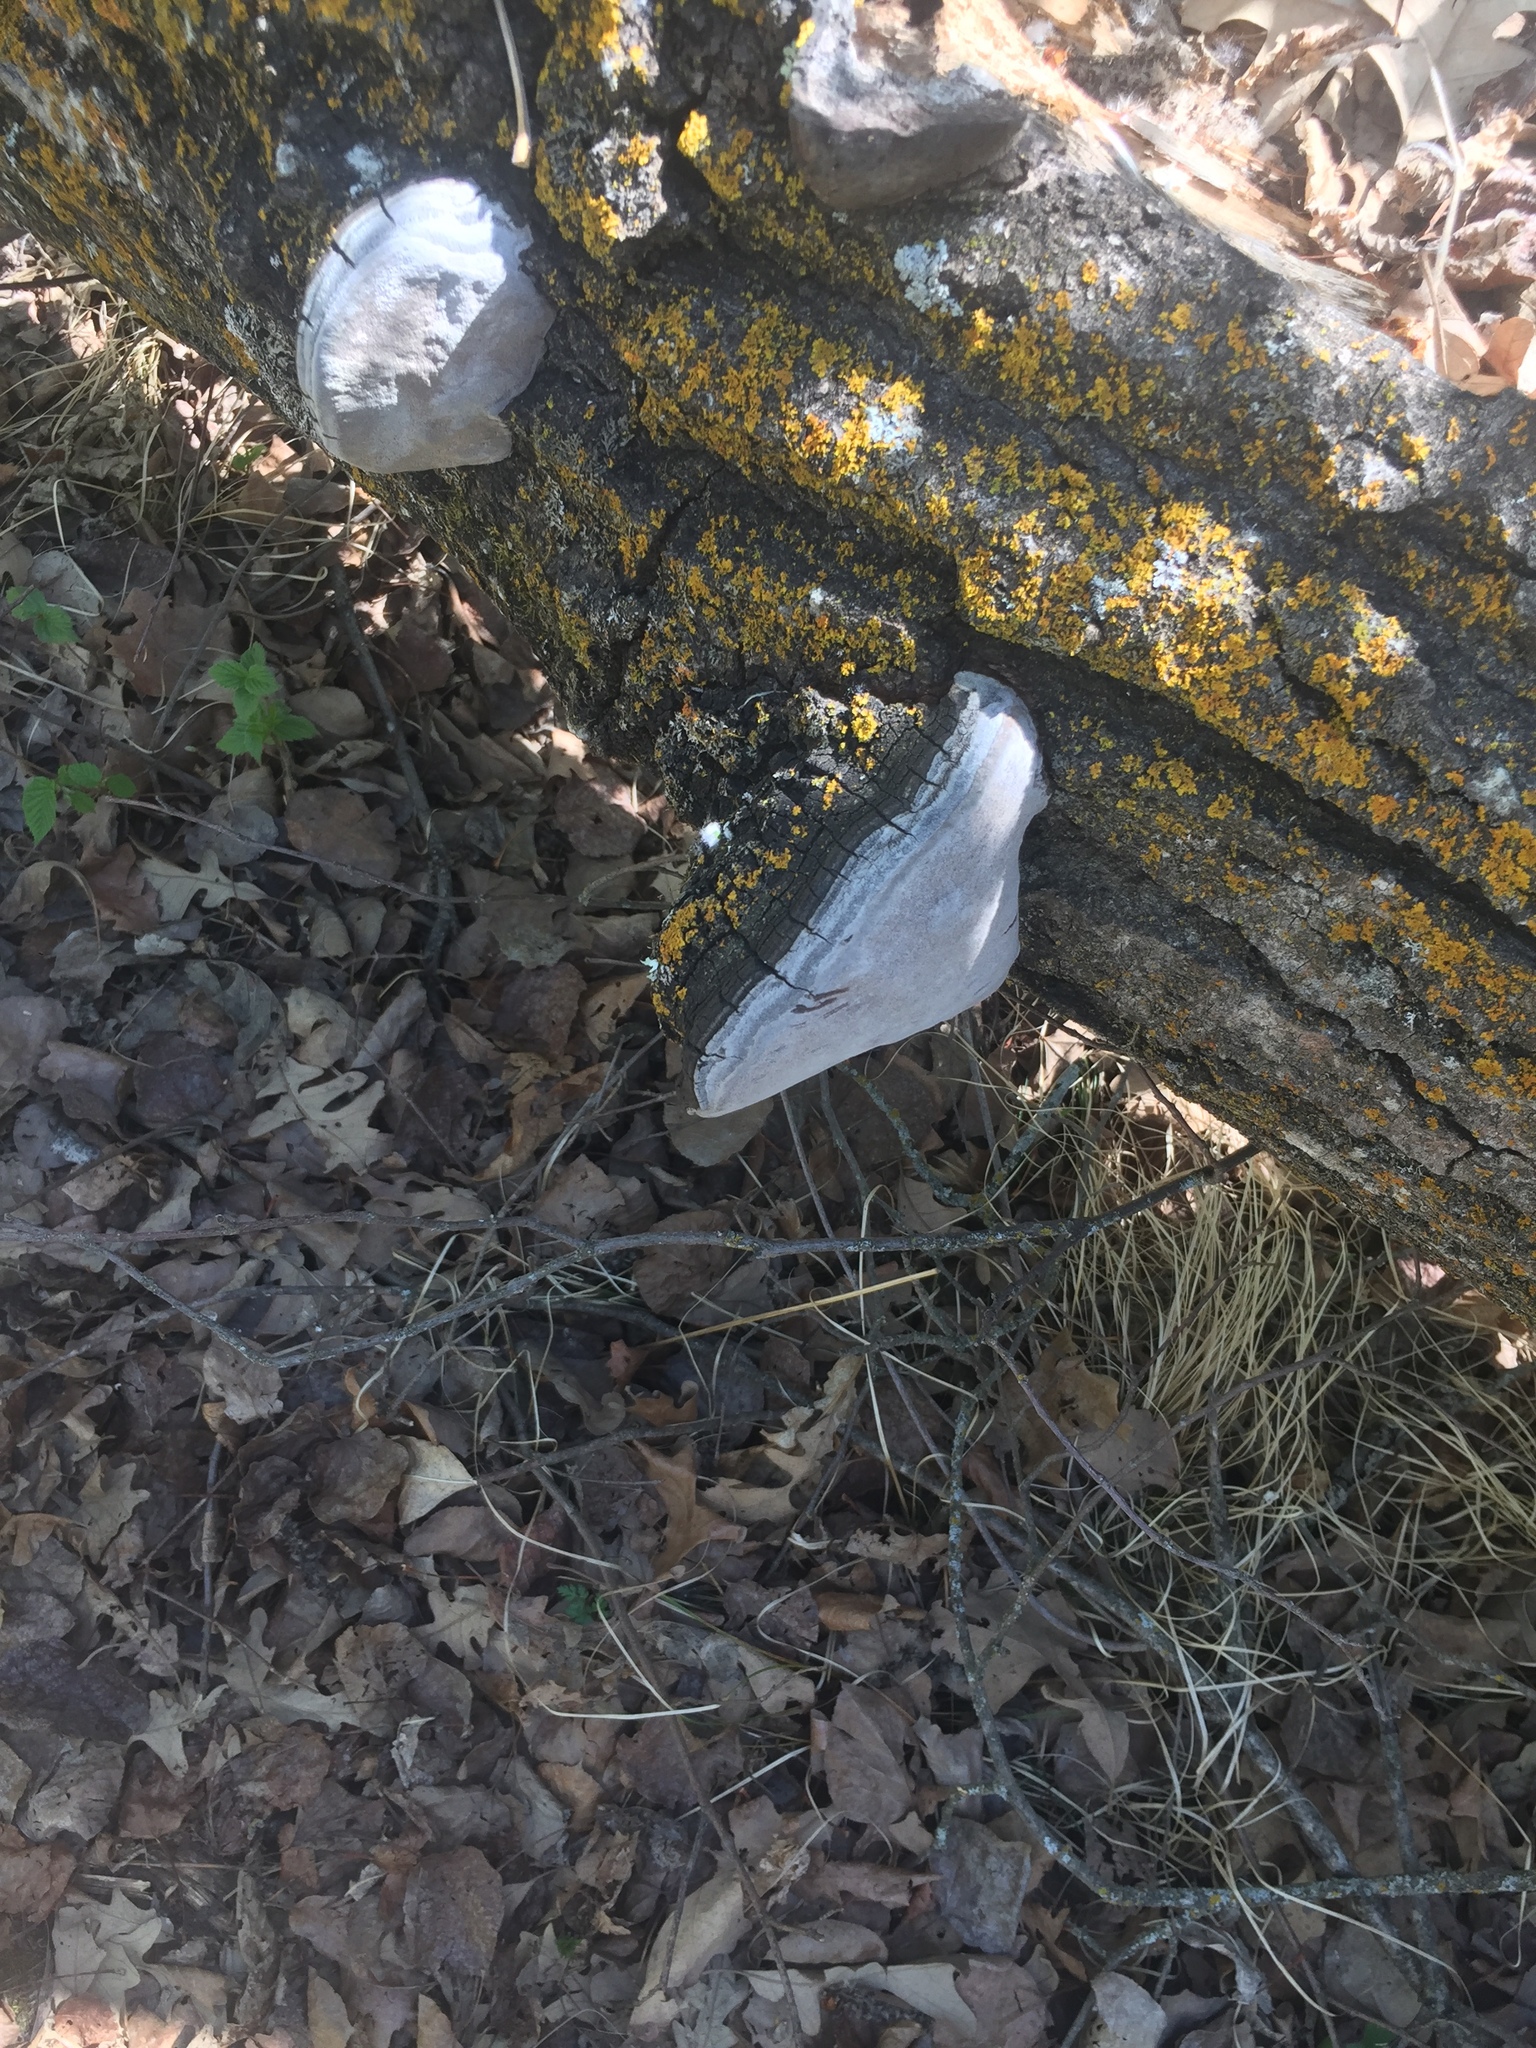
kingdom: Fungi
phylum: Basidiomycota
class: Agaricomycetes
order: Hymenochaetales
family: Hymenochaetaceae
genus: Phellinus
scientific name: Phellinus tremulae
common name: Aspen bracket
